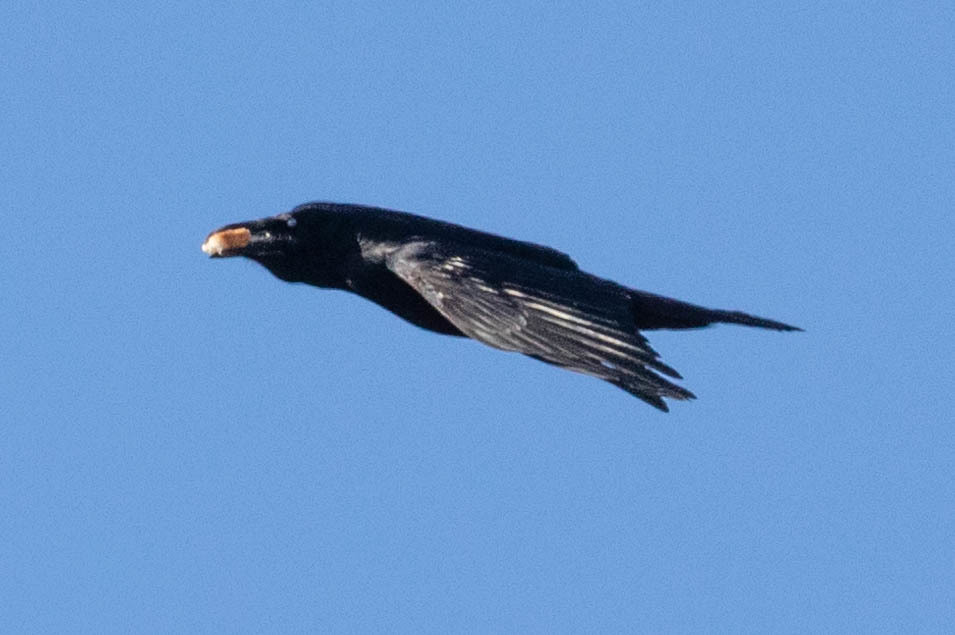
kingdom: Animalia
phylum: Chordata
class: Aves
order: Passeriformes
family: Corvidae
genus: Corvus
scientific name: Corvus corax
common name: Common raven
